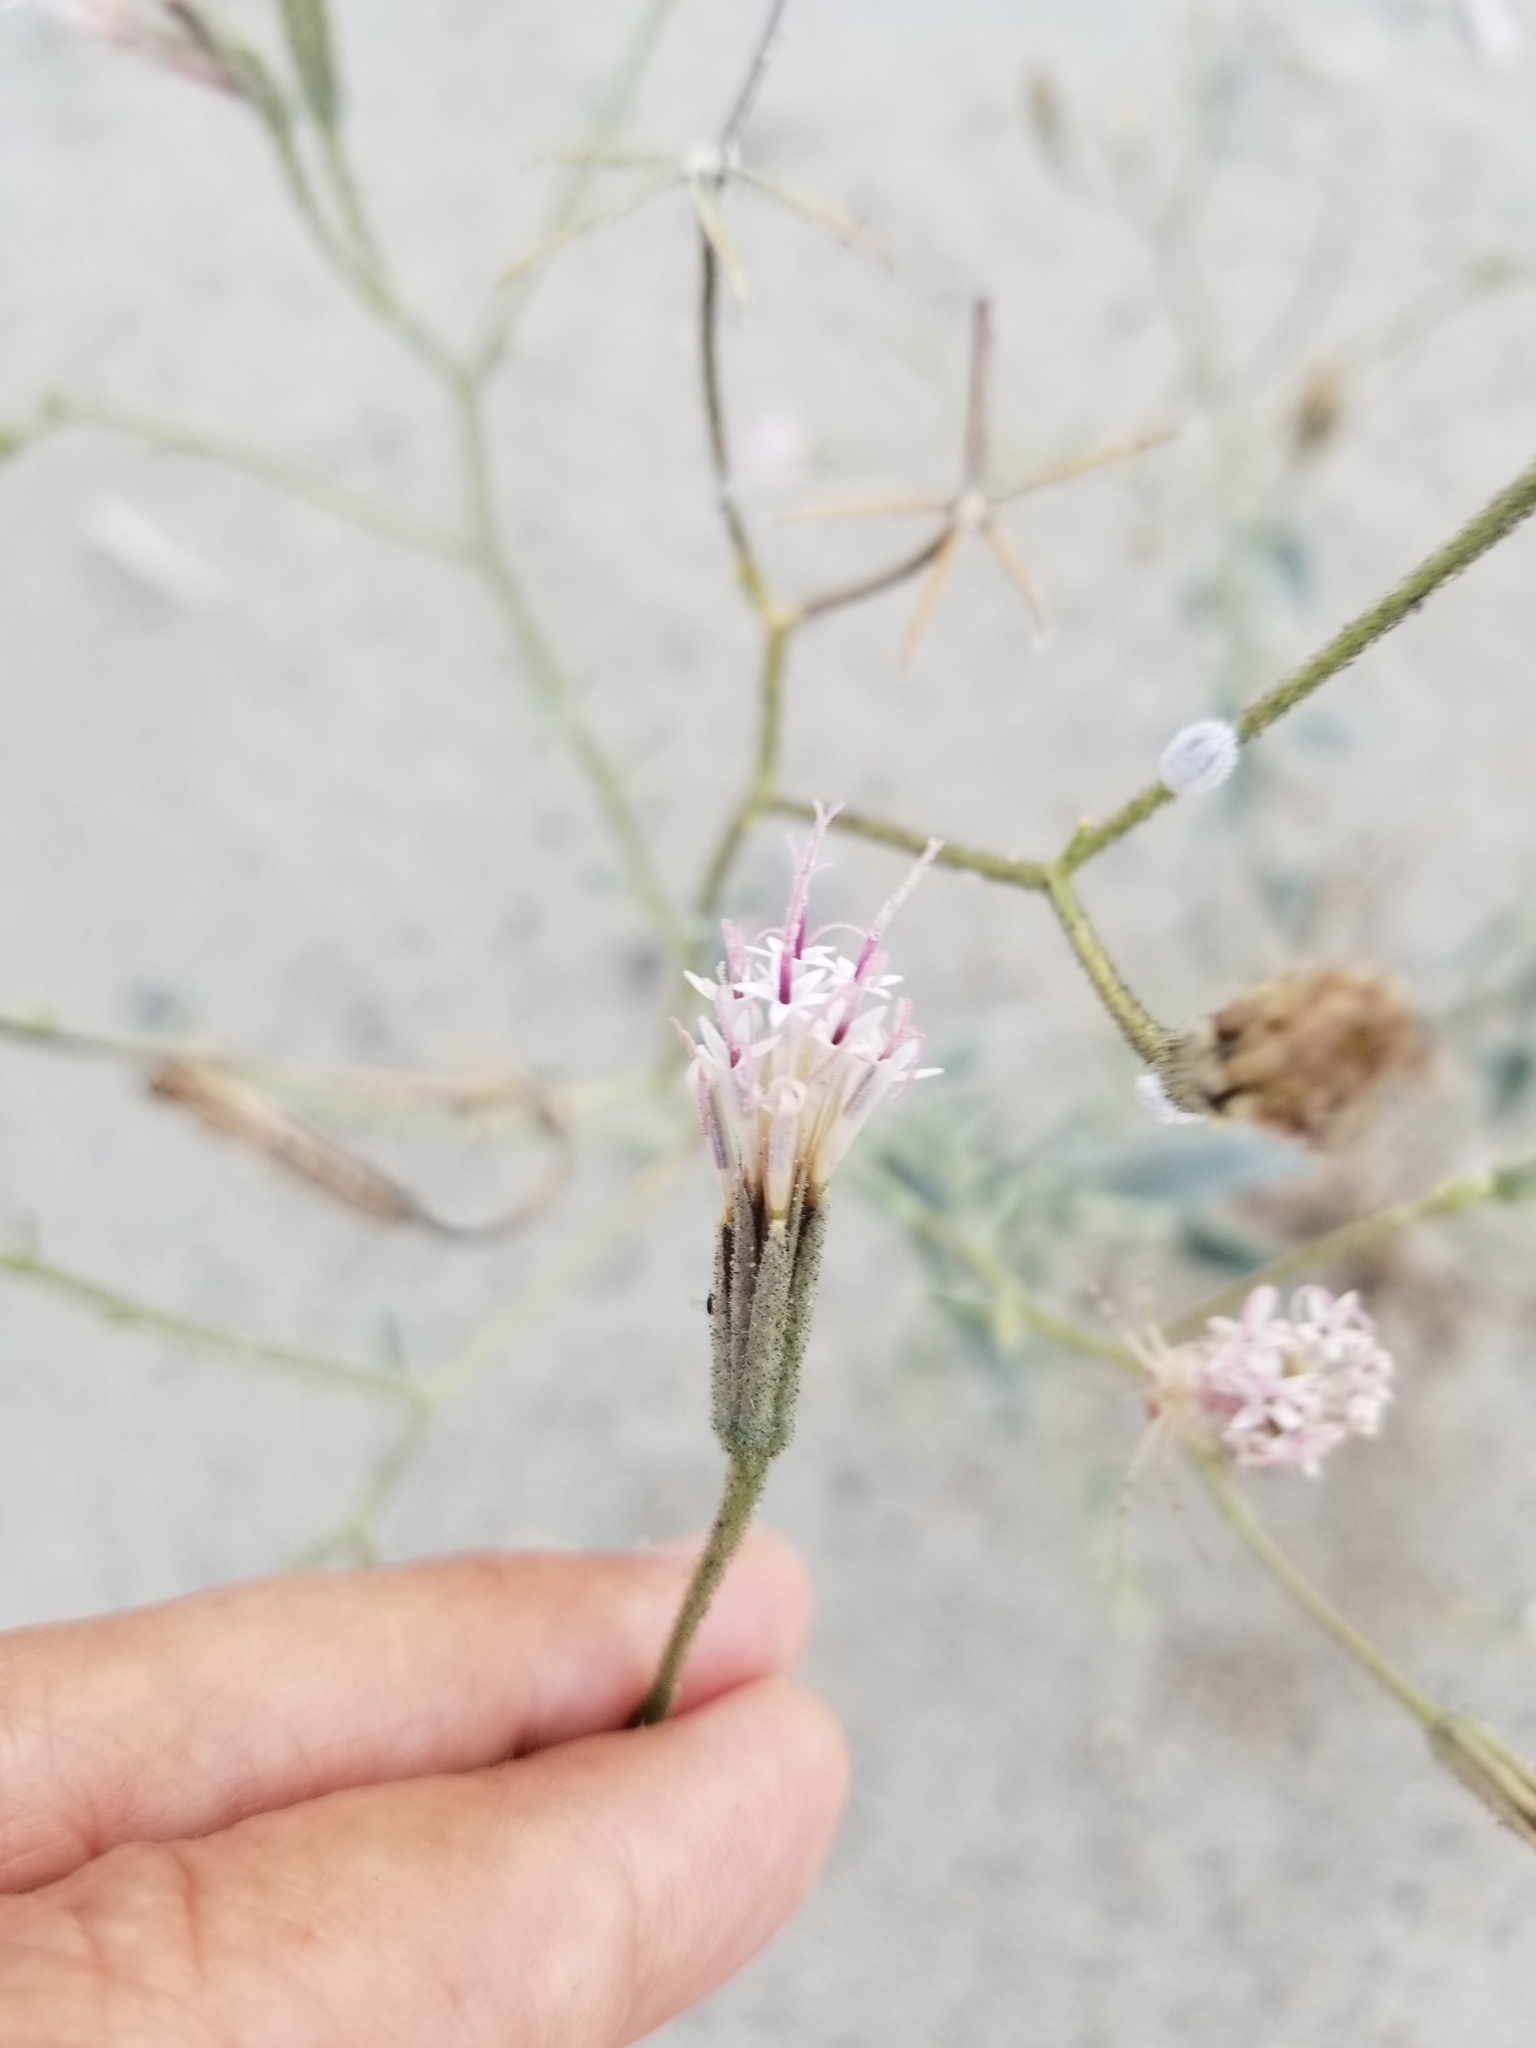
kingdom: Plantae
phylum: Tracheophyta
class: Magnoliopsida
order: Asterales
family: Asteraceae
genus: Palafoxia
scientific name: Palafoxia arida
